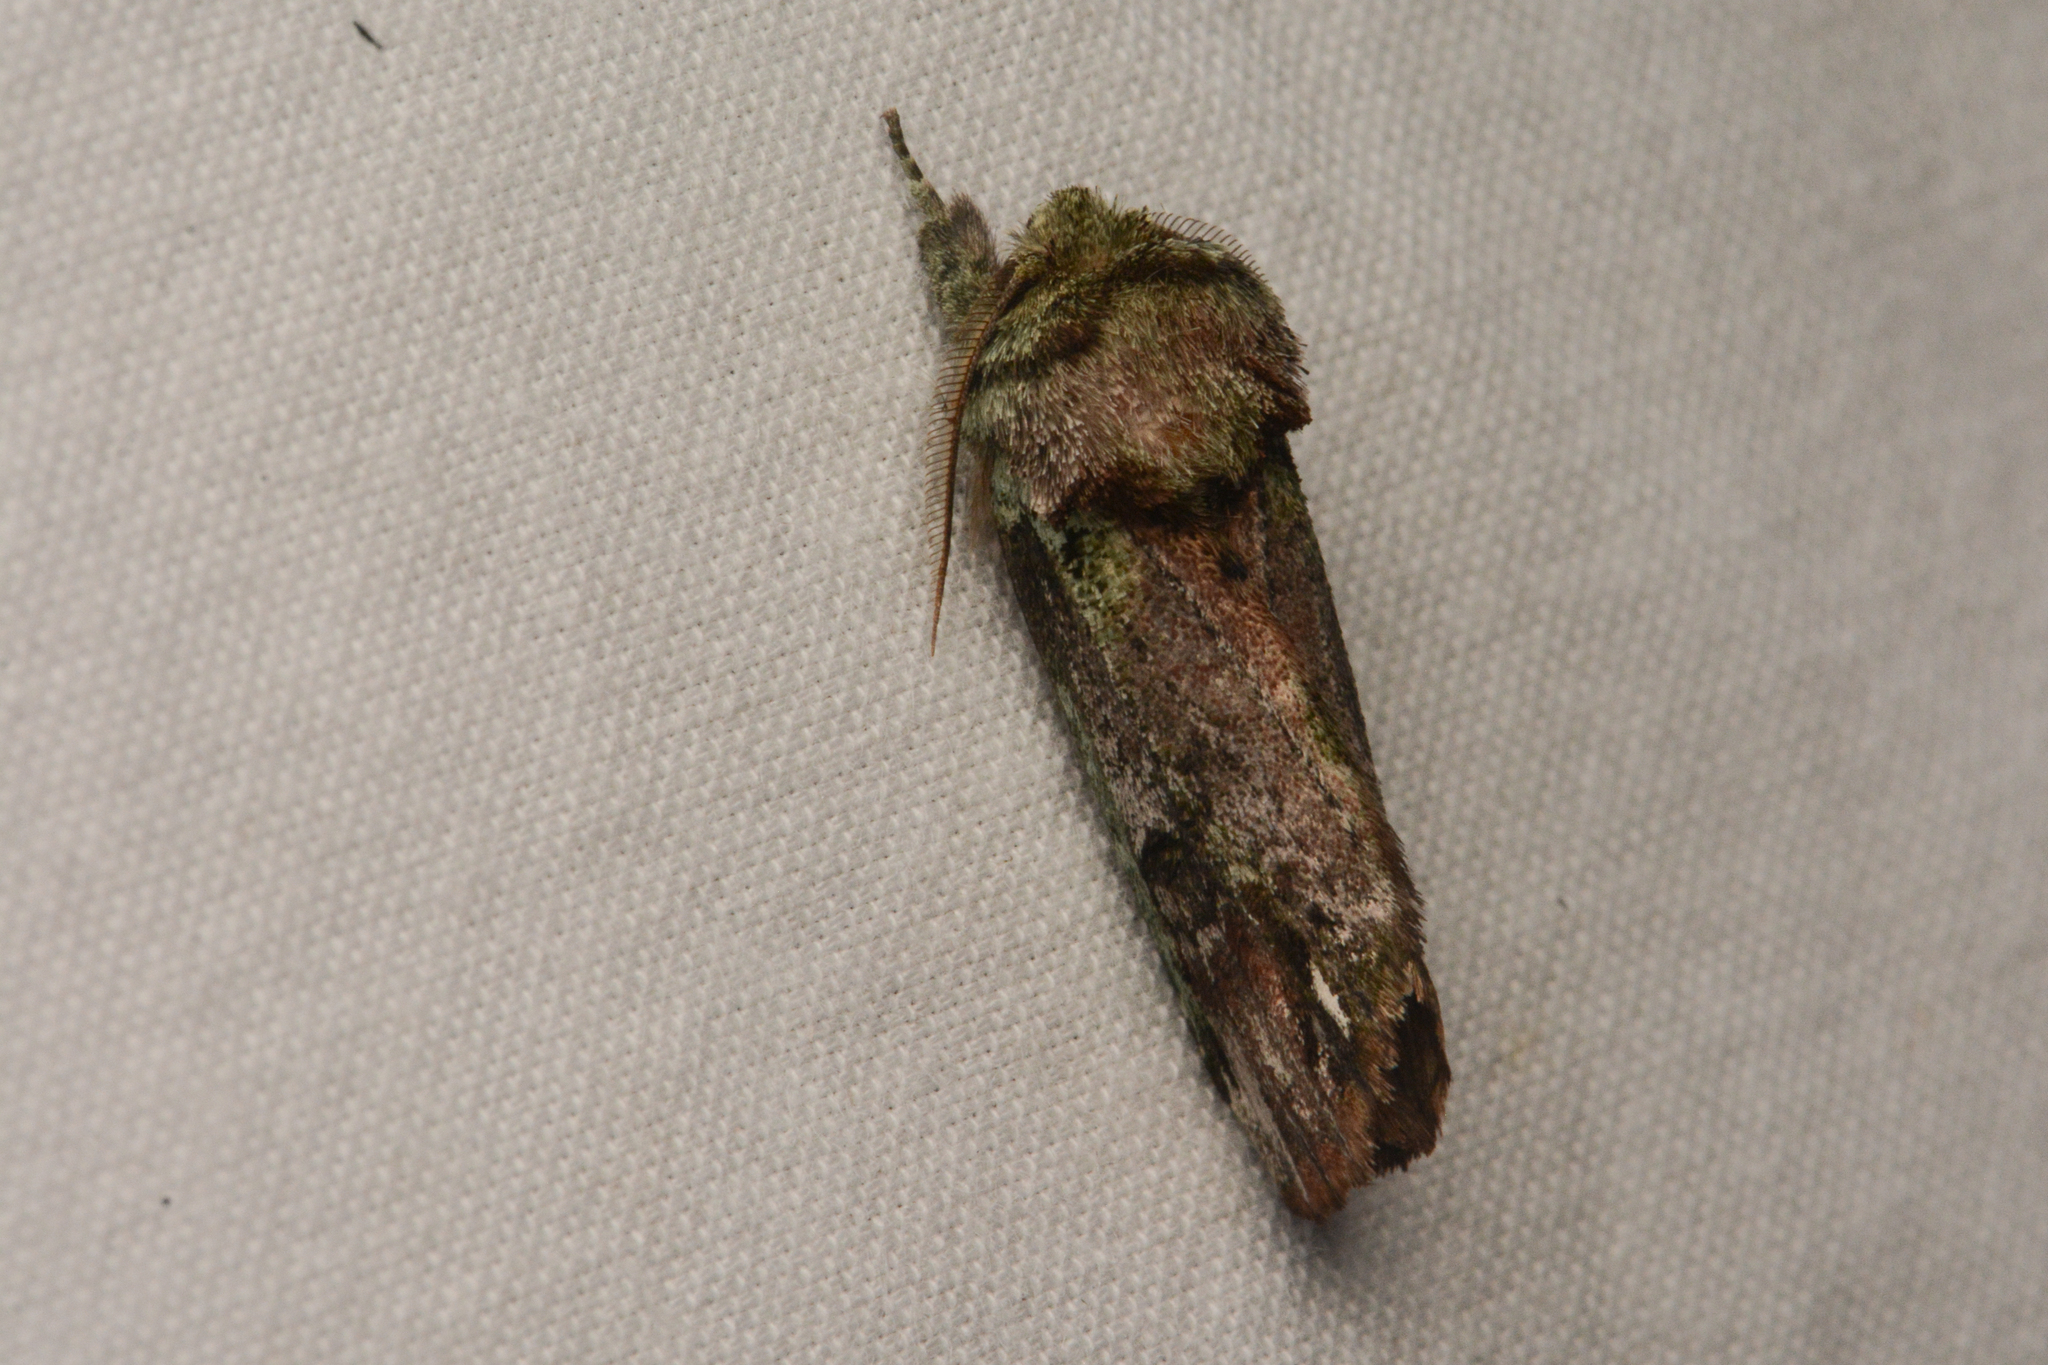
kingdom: Animalia
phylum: Arthropoda
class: Insecta
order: Lepidoptera
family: Notodontidae
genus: Schizura
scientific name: Schizura
